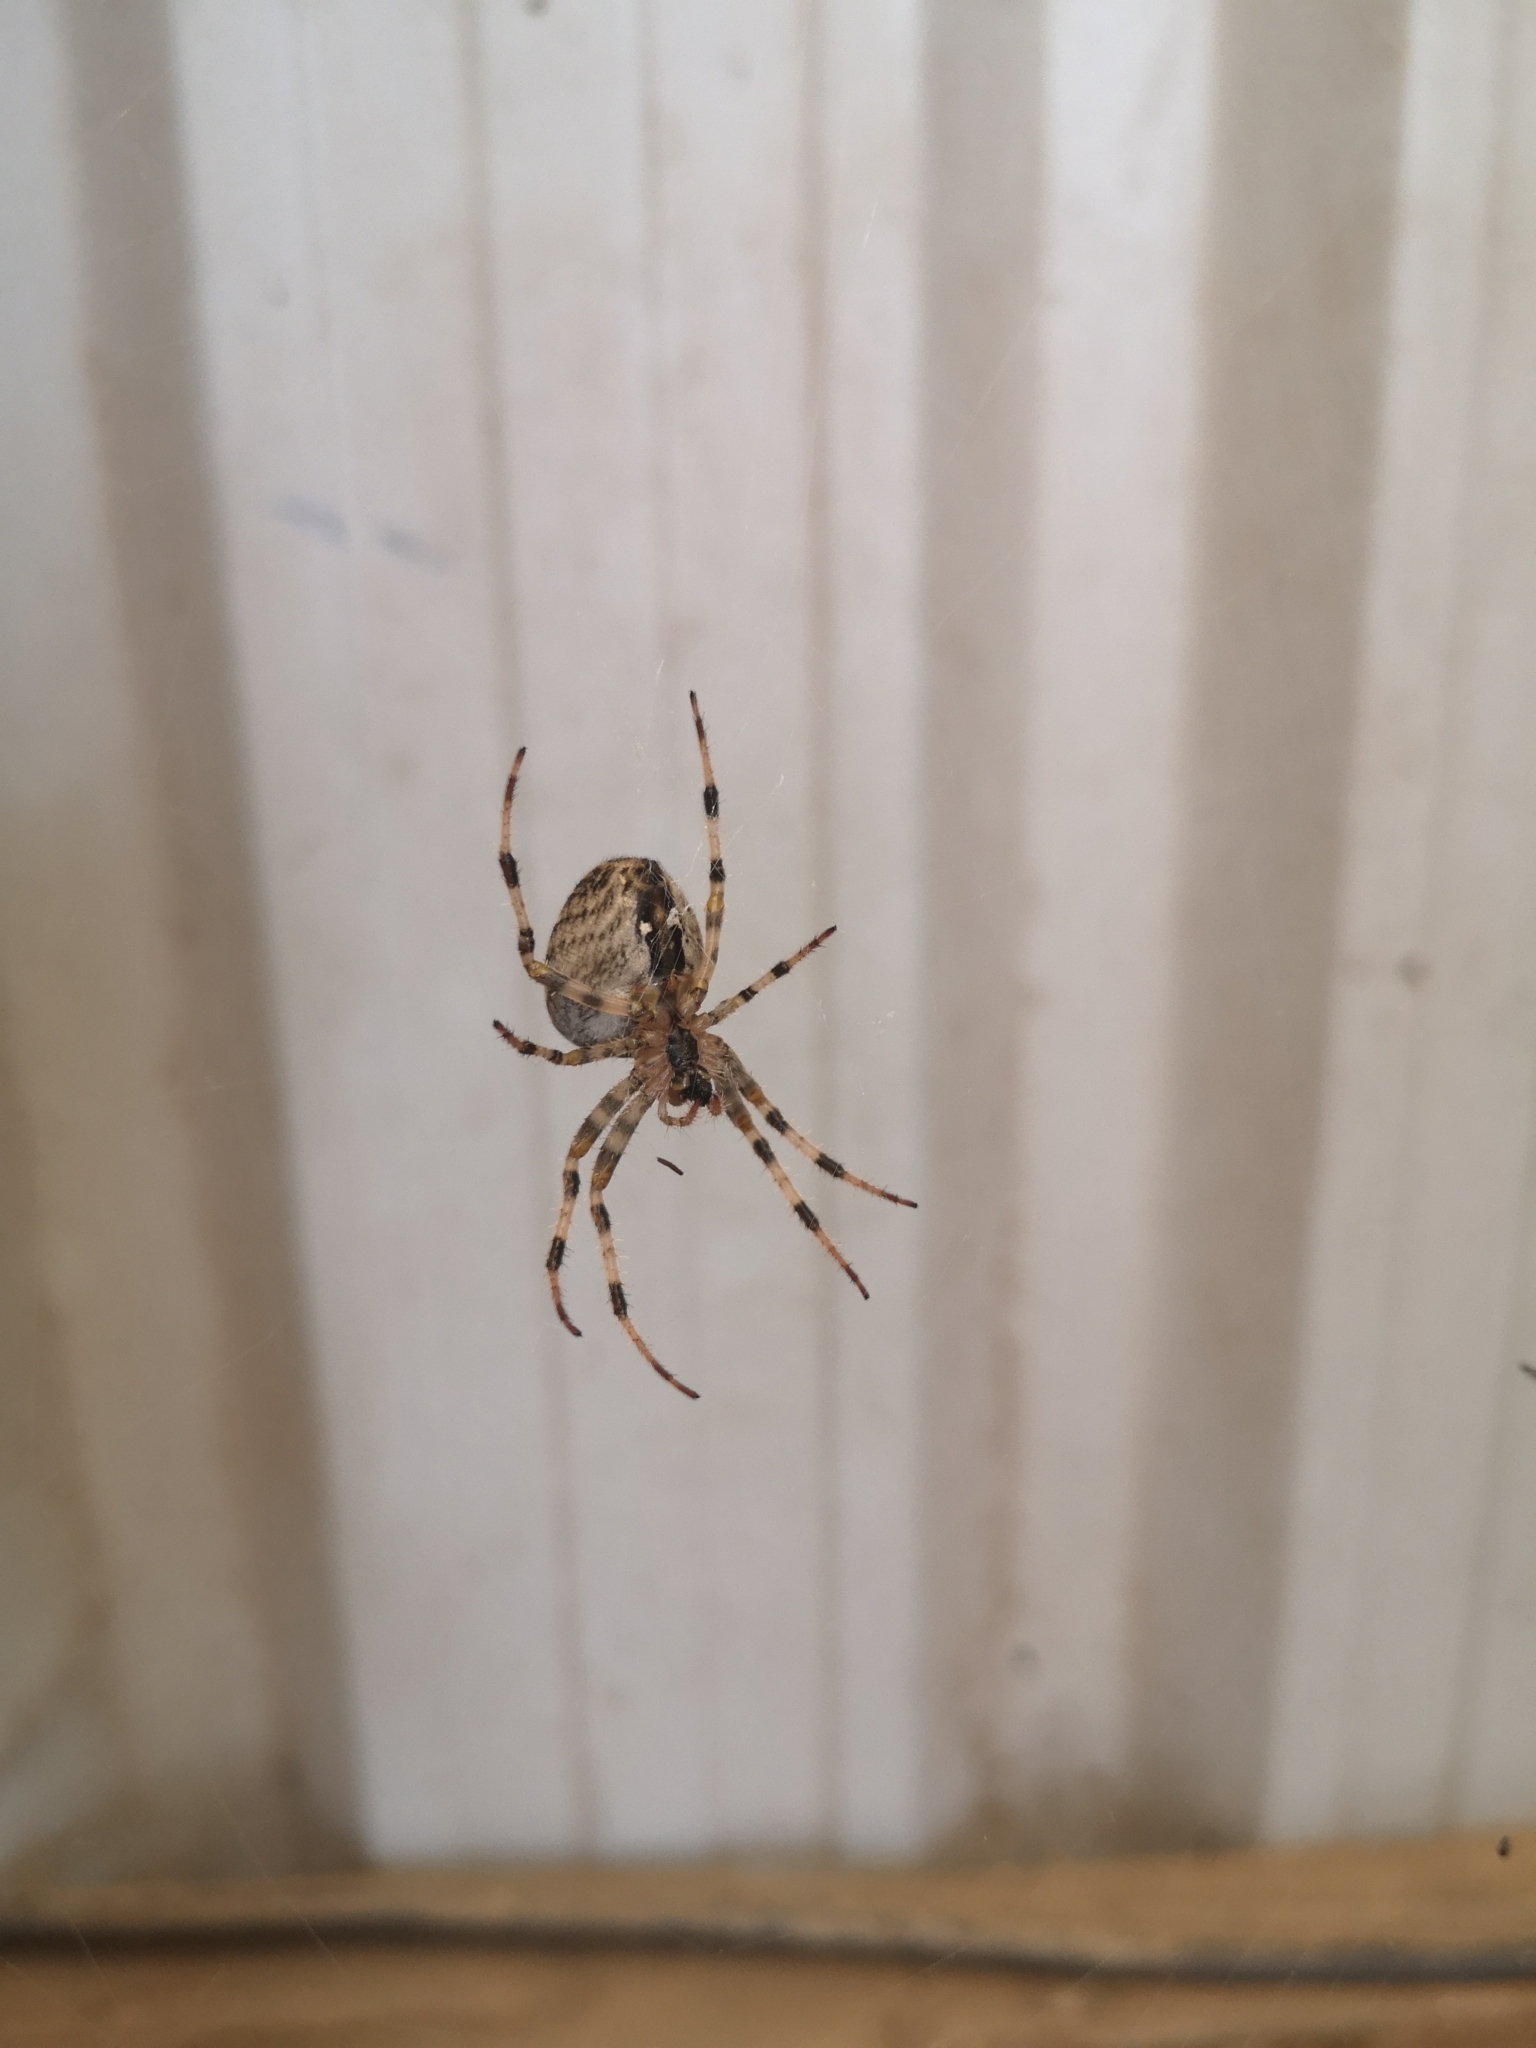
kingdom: Animalia
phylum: Arthropoda
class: Arachnida
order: Araneae
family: Araneidae
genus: Araneus
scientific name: Araneus diadematus
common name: Cross orbweaver
